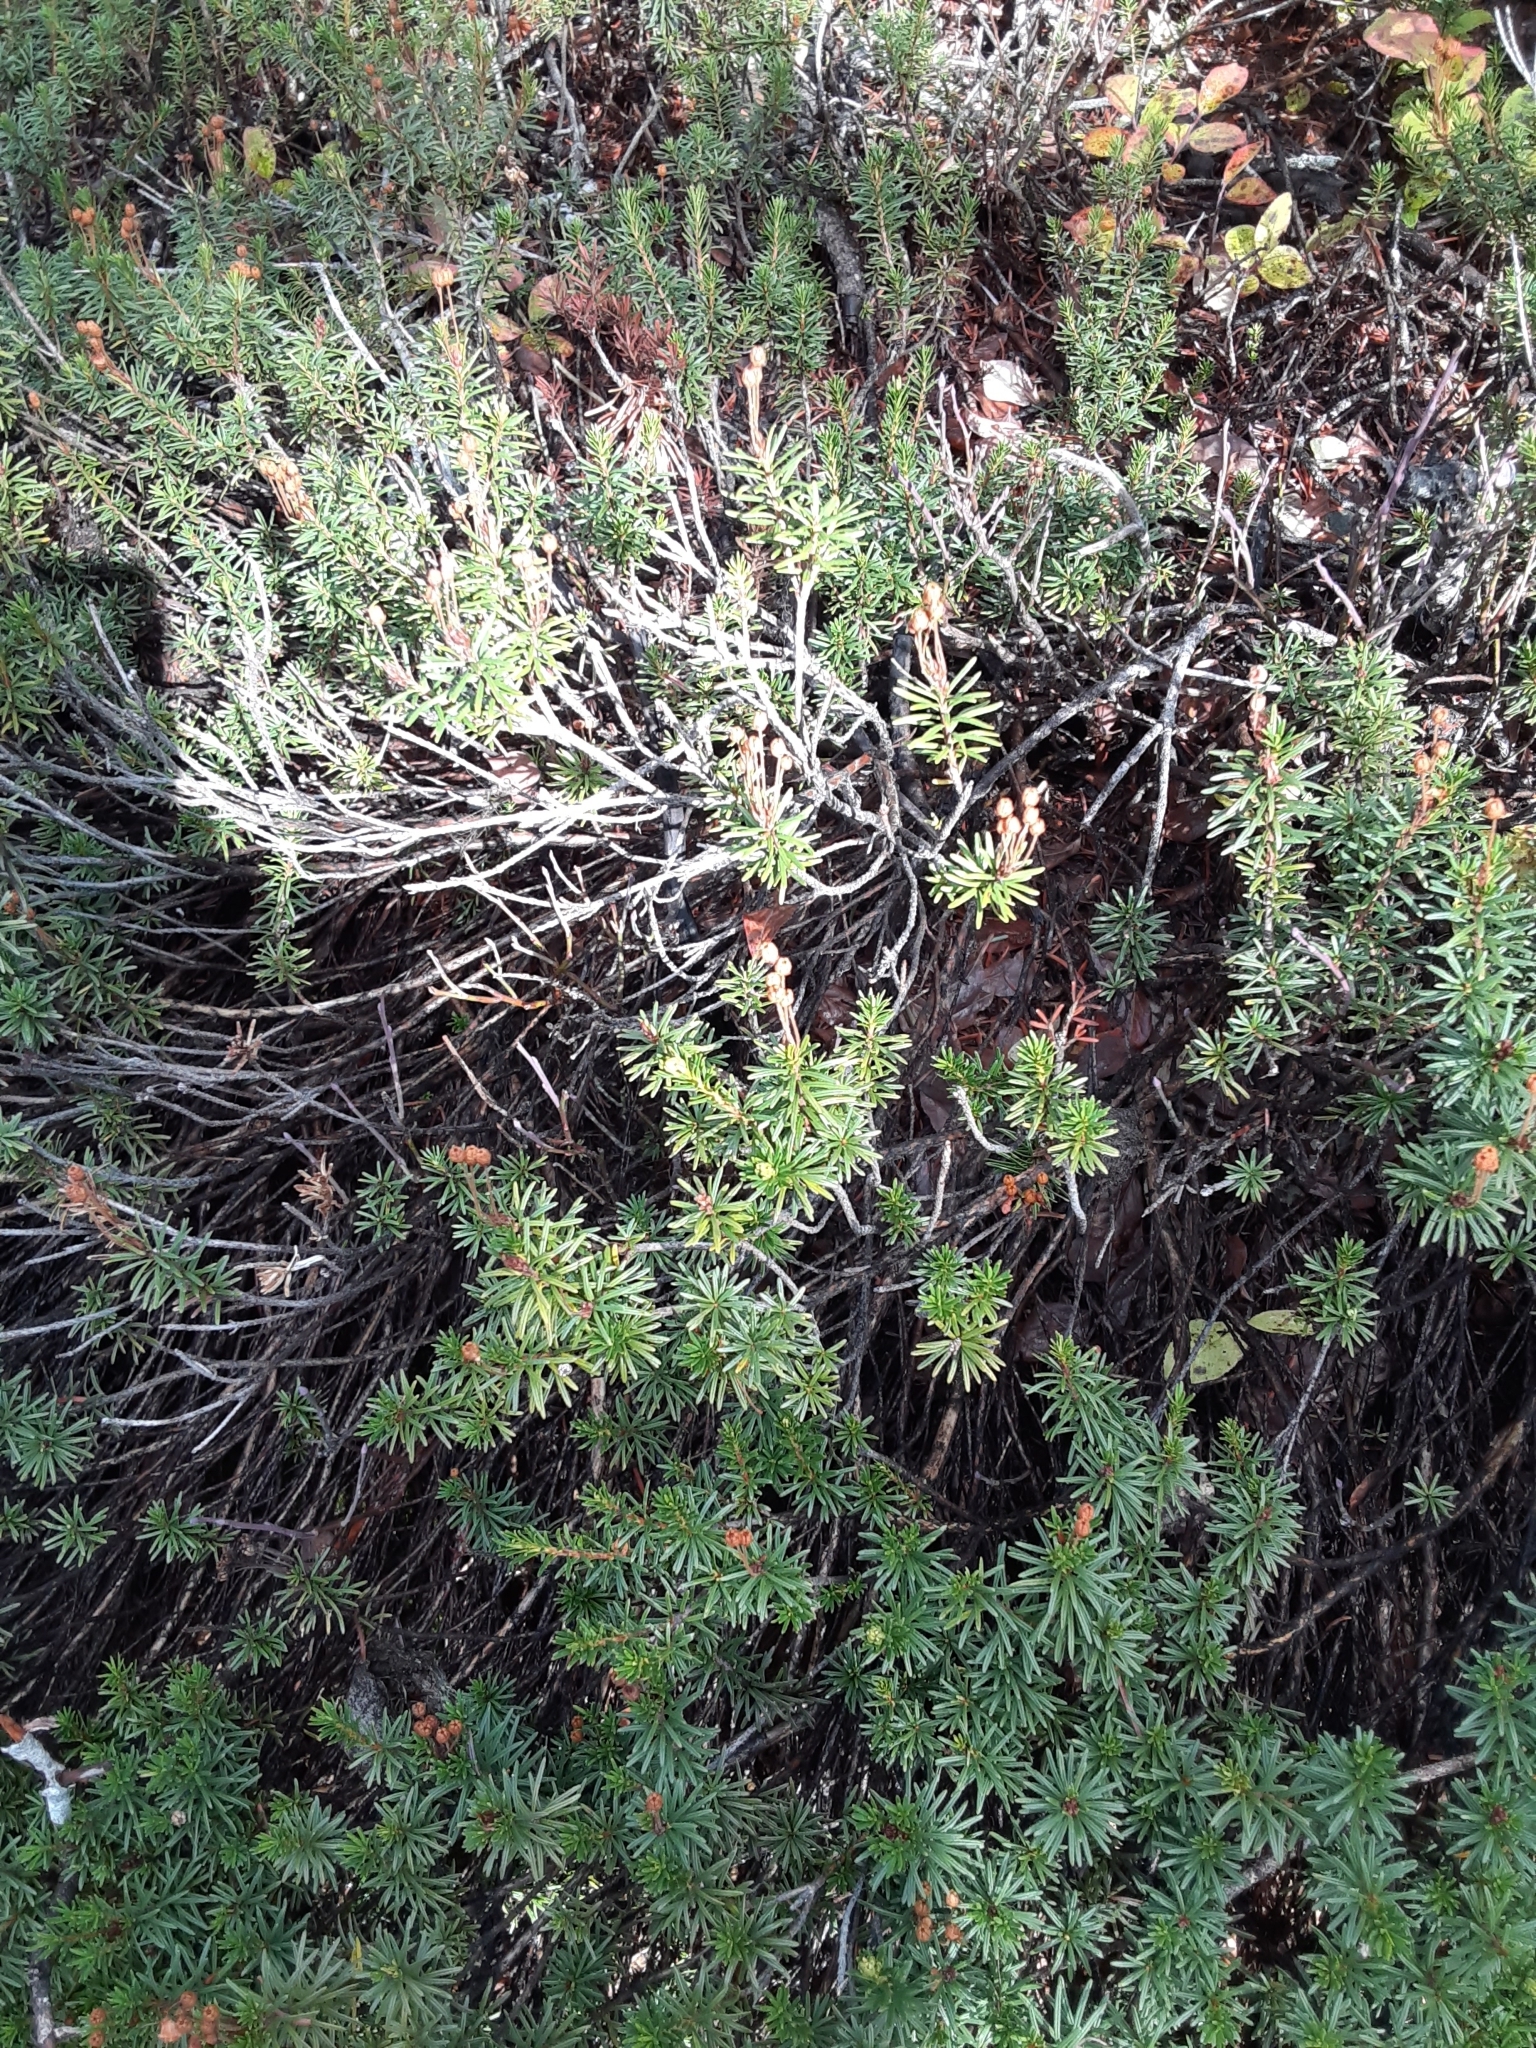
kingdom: Plantae
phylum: Tracheophyta
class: Magnoliopsida
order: Ericales
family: Ericaceae
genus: Phyllodoce
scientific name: Phyllodoce empetriformis
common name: Pink mountain heather
